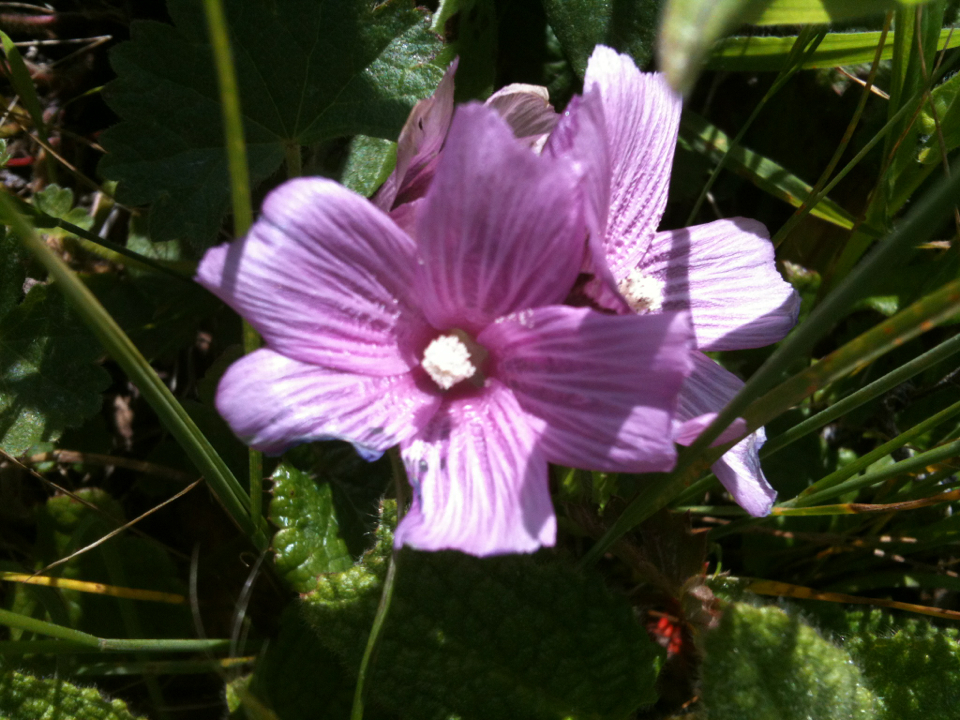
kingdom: Plantae
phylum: Tracheophyta
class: Magnoliopsida
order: Malvales
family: Malvaceae
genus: Sidalcea
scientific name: Sidalcea malviflora
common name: Greek mallow
